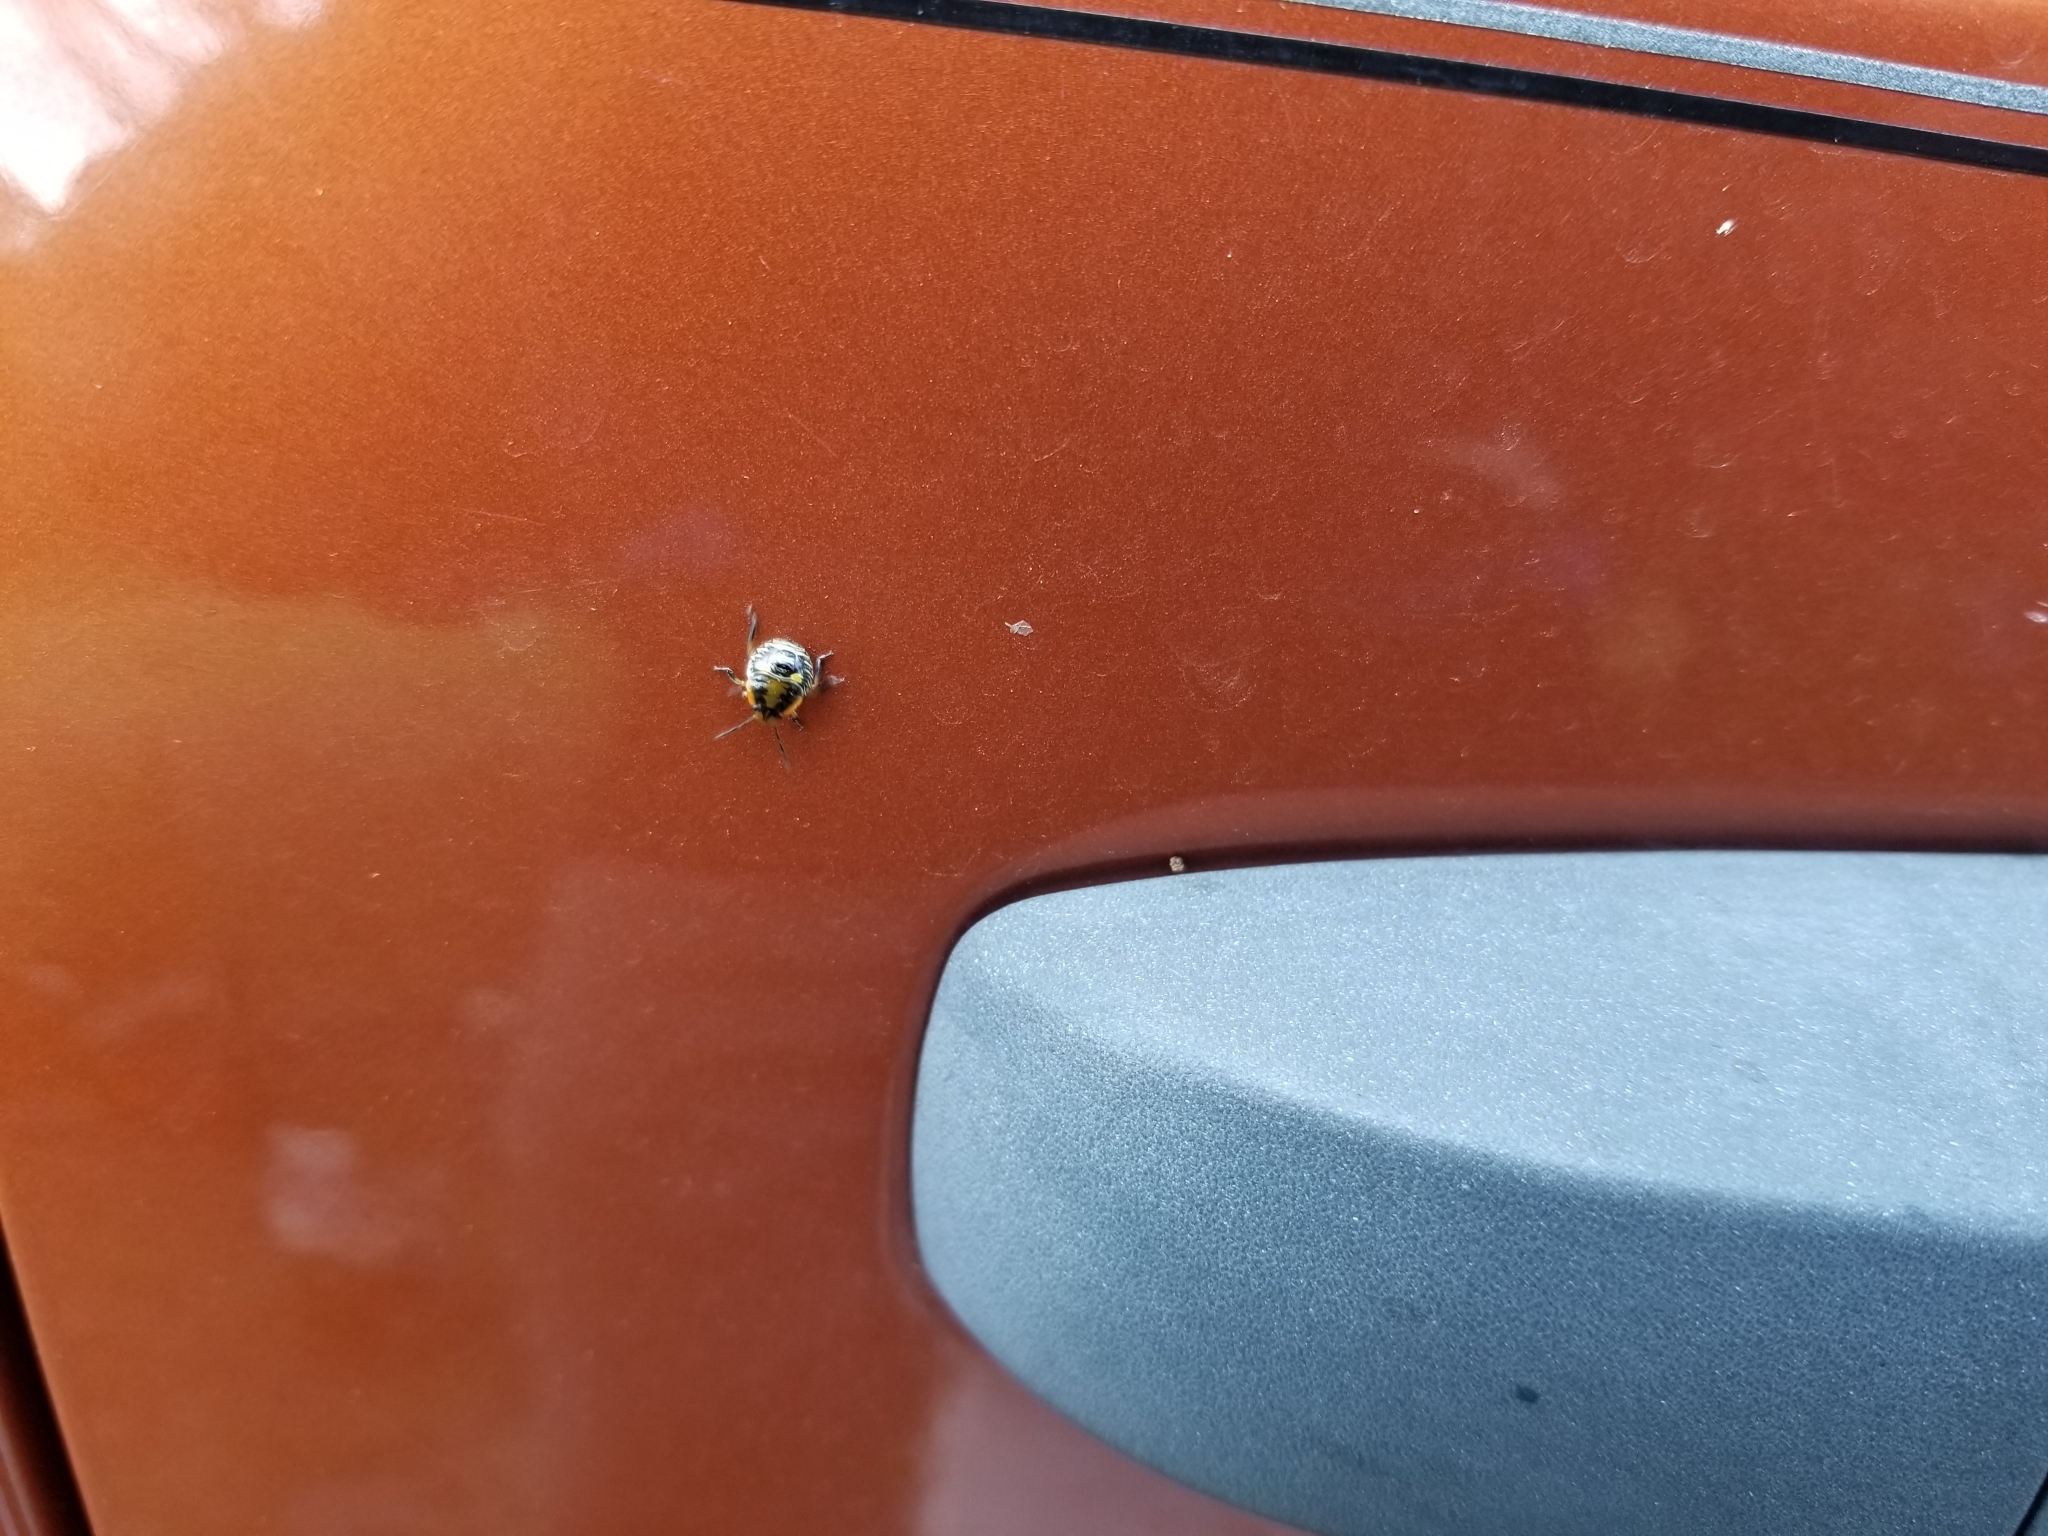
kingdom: Animalia
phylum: Arthropoda
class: Insecta
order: Hemiptera
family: Pentatomidae
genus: Chinavia
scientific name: Chinavia hilaris
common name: Green stink bug
